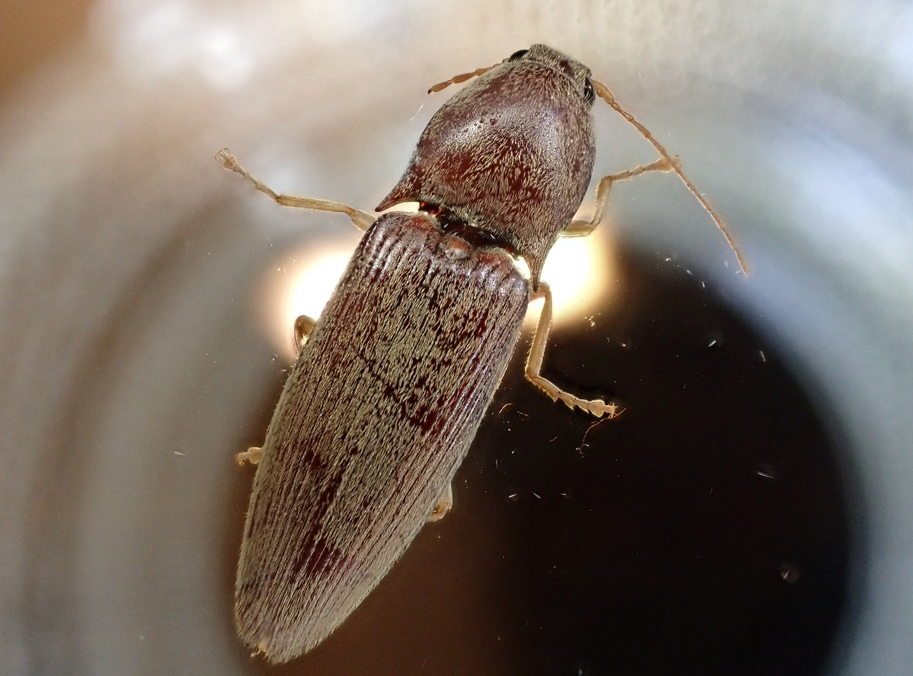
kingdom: Animalia
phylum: Arthropoda
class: Insecta
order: Coleoptera
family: Elateridae
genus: Monocrepidius
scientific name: Monocrepidius lividus
